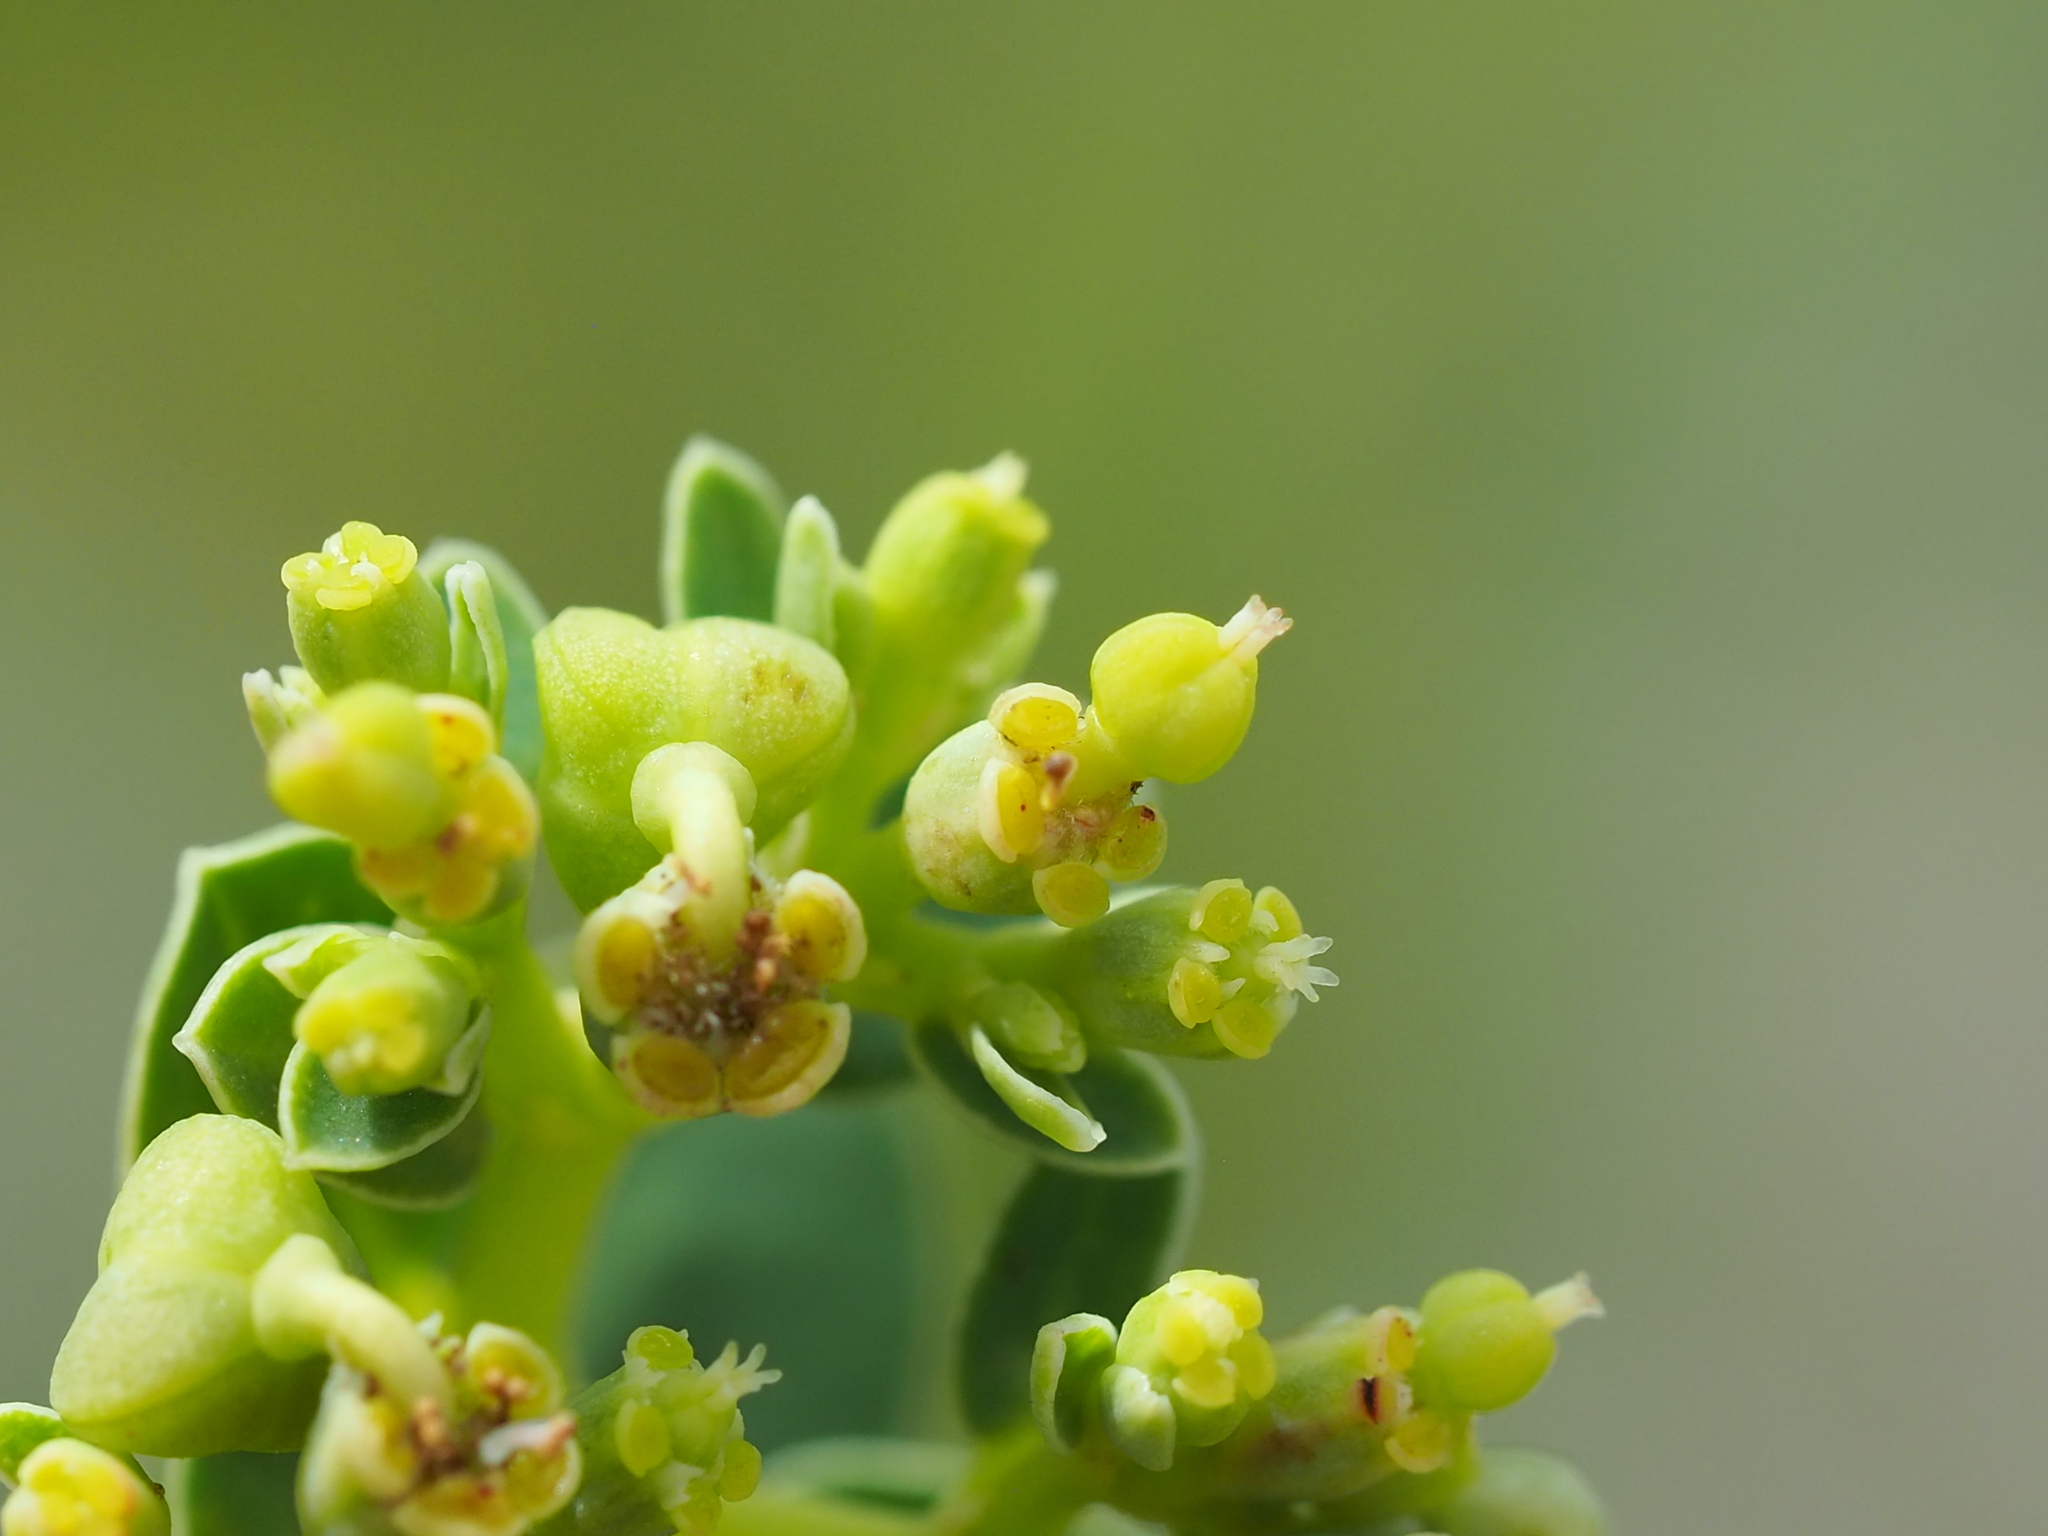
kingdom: Plantae
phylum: Tracheophyta
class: Magnoliopsida
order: Malpighiales
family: Euphorbiaceae
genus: Euphorbia
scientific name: Euphorbia atoto
